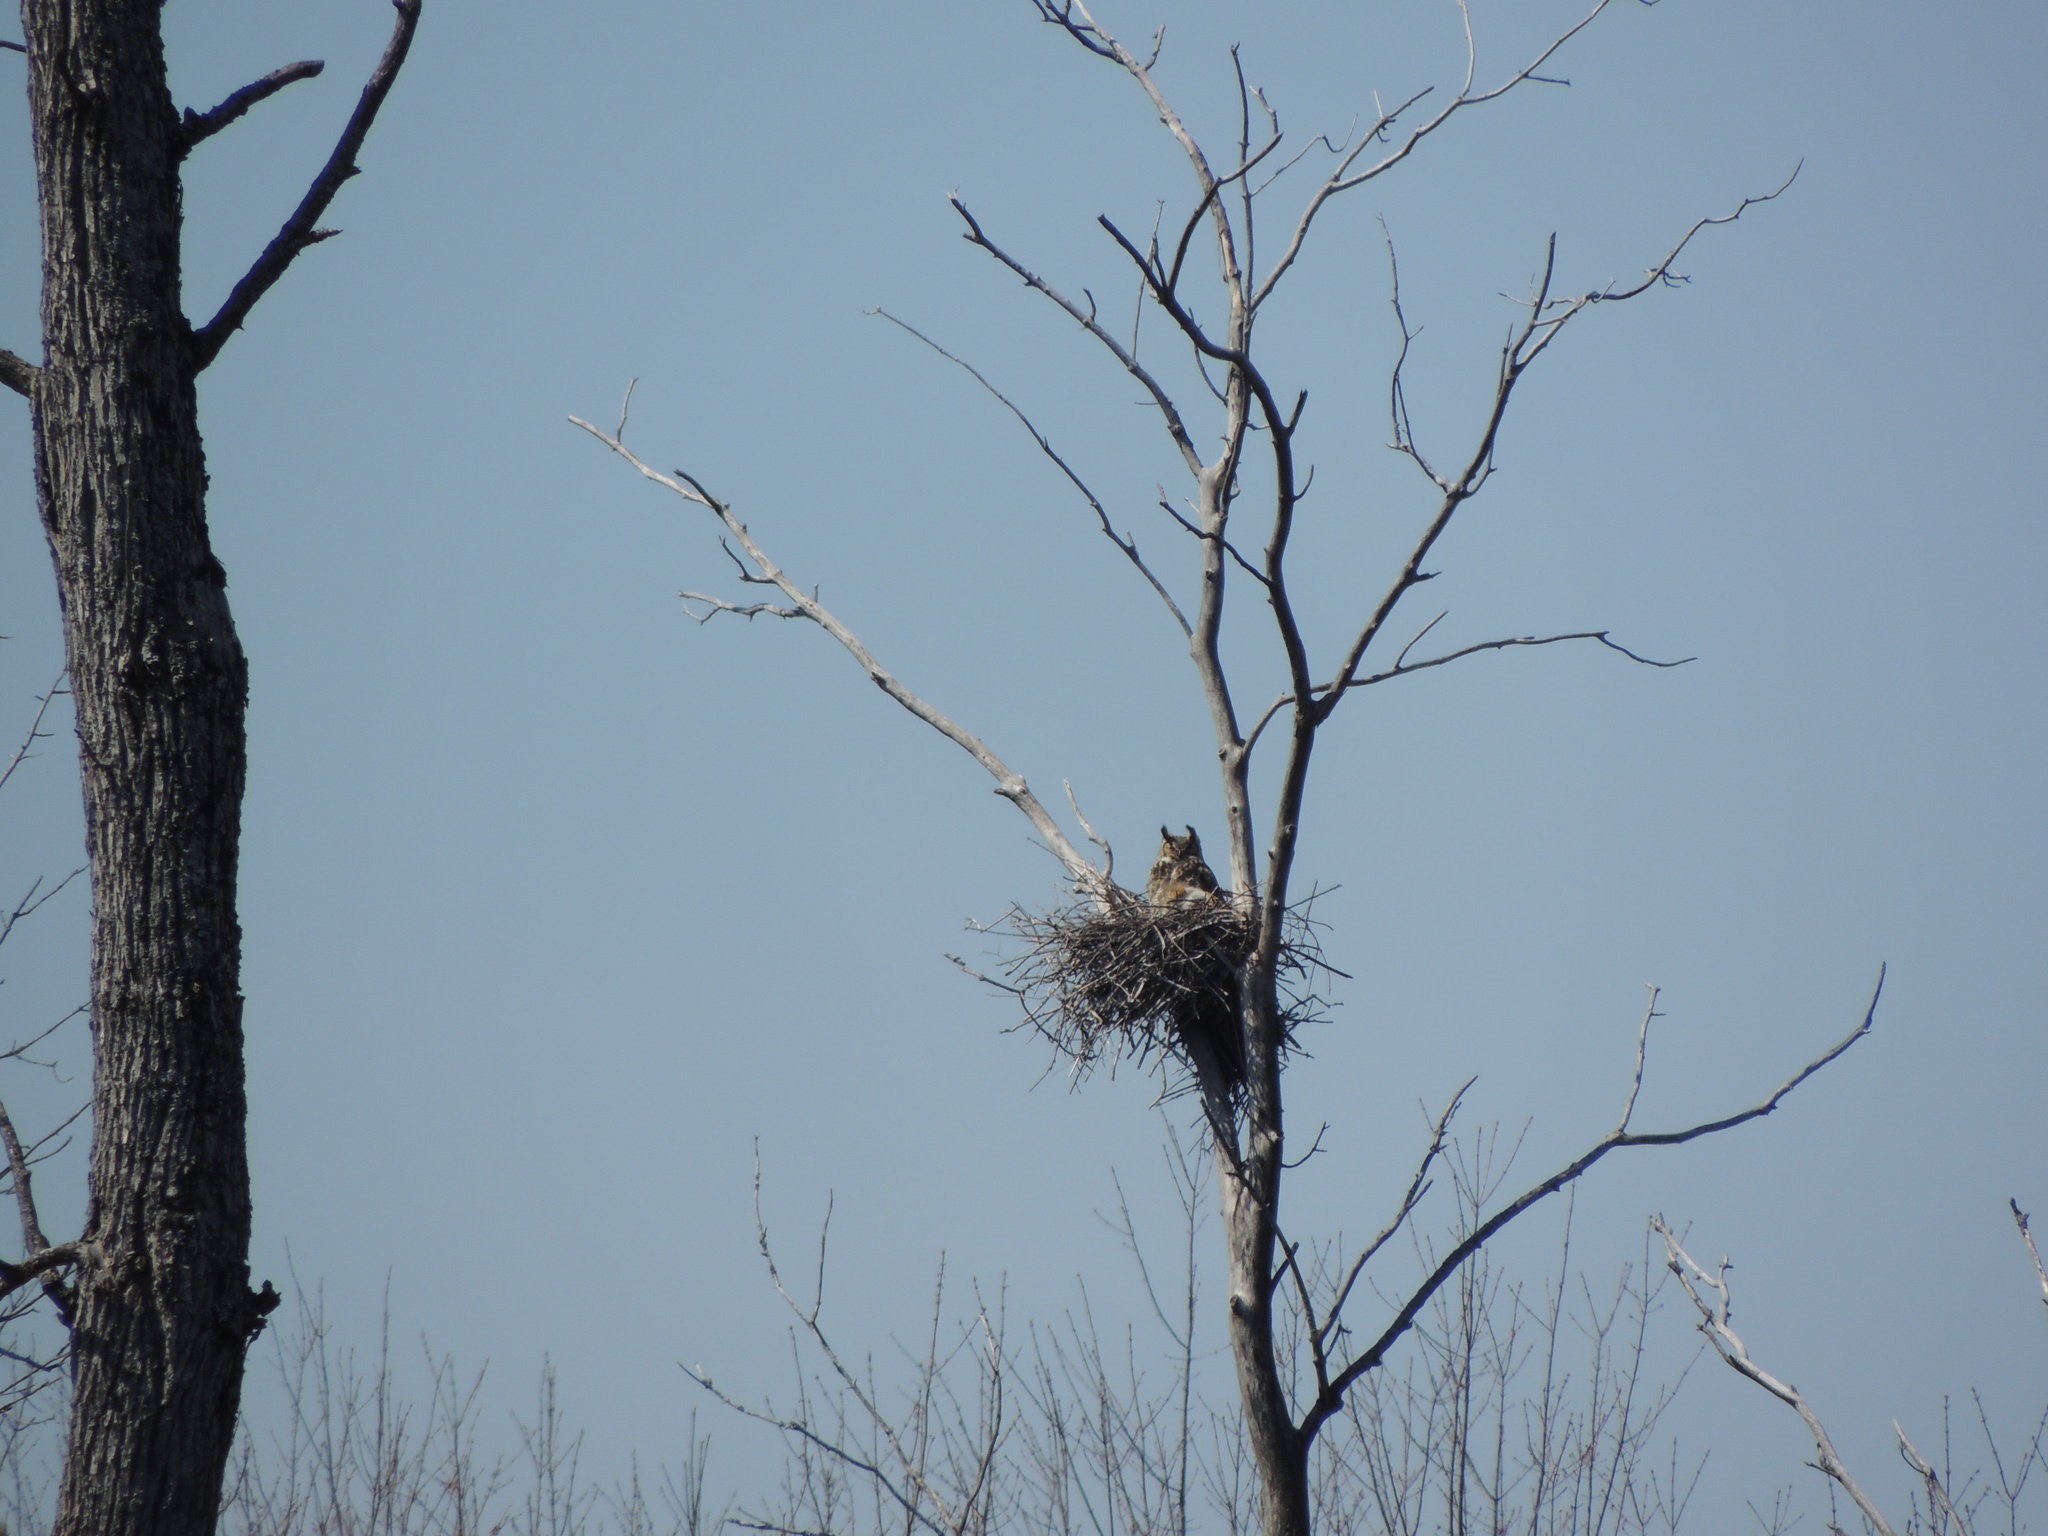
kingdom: Animalia
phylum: Chordata
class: Aves
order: Strigiformes
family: Strigidae
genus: Bubo
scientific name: Bubo virginianus
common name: Great horned owl
